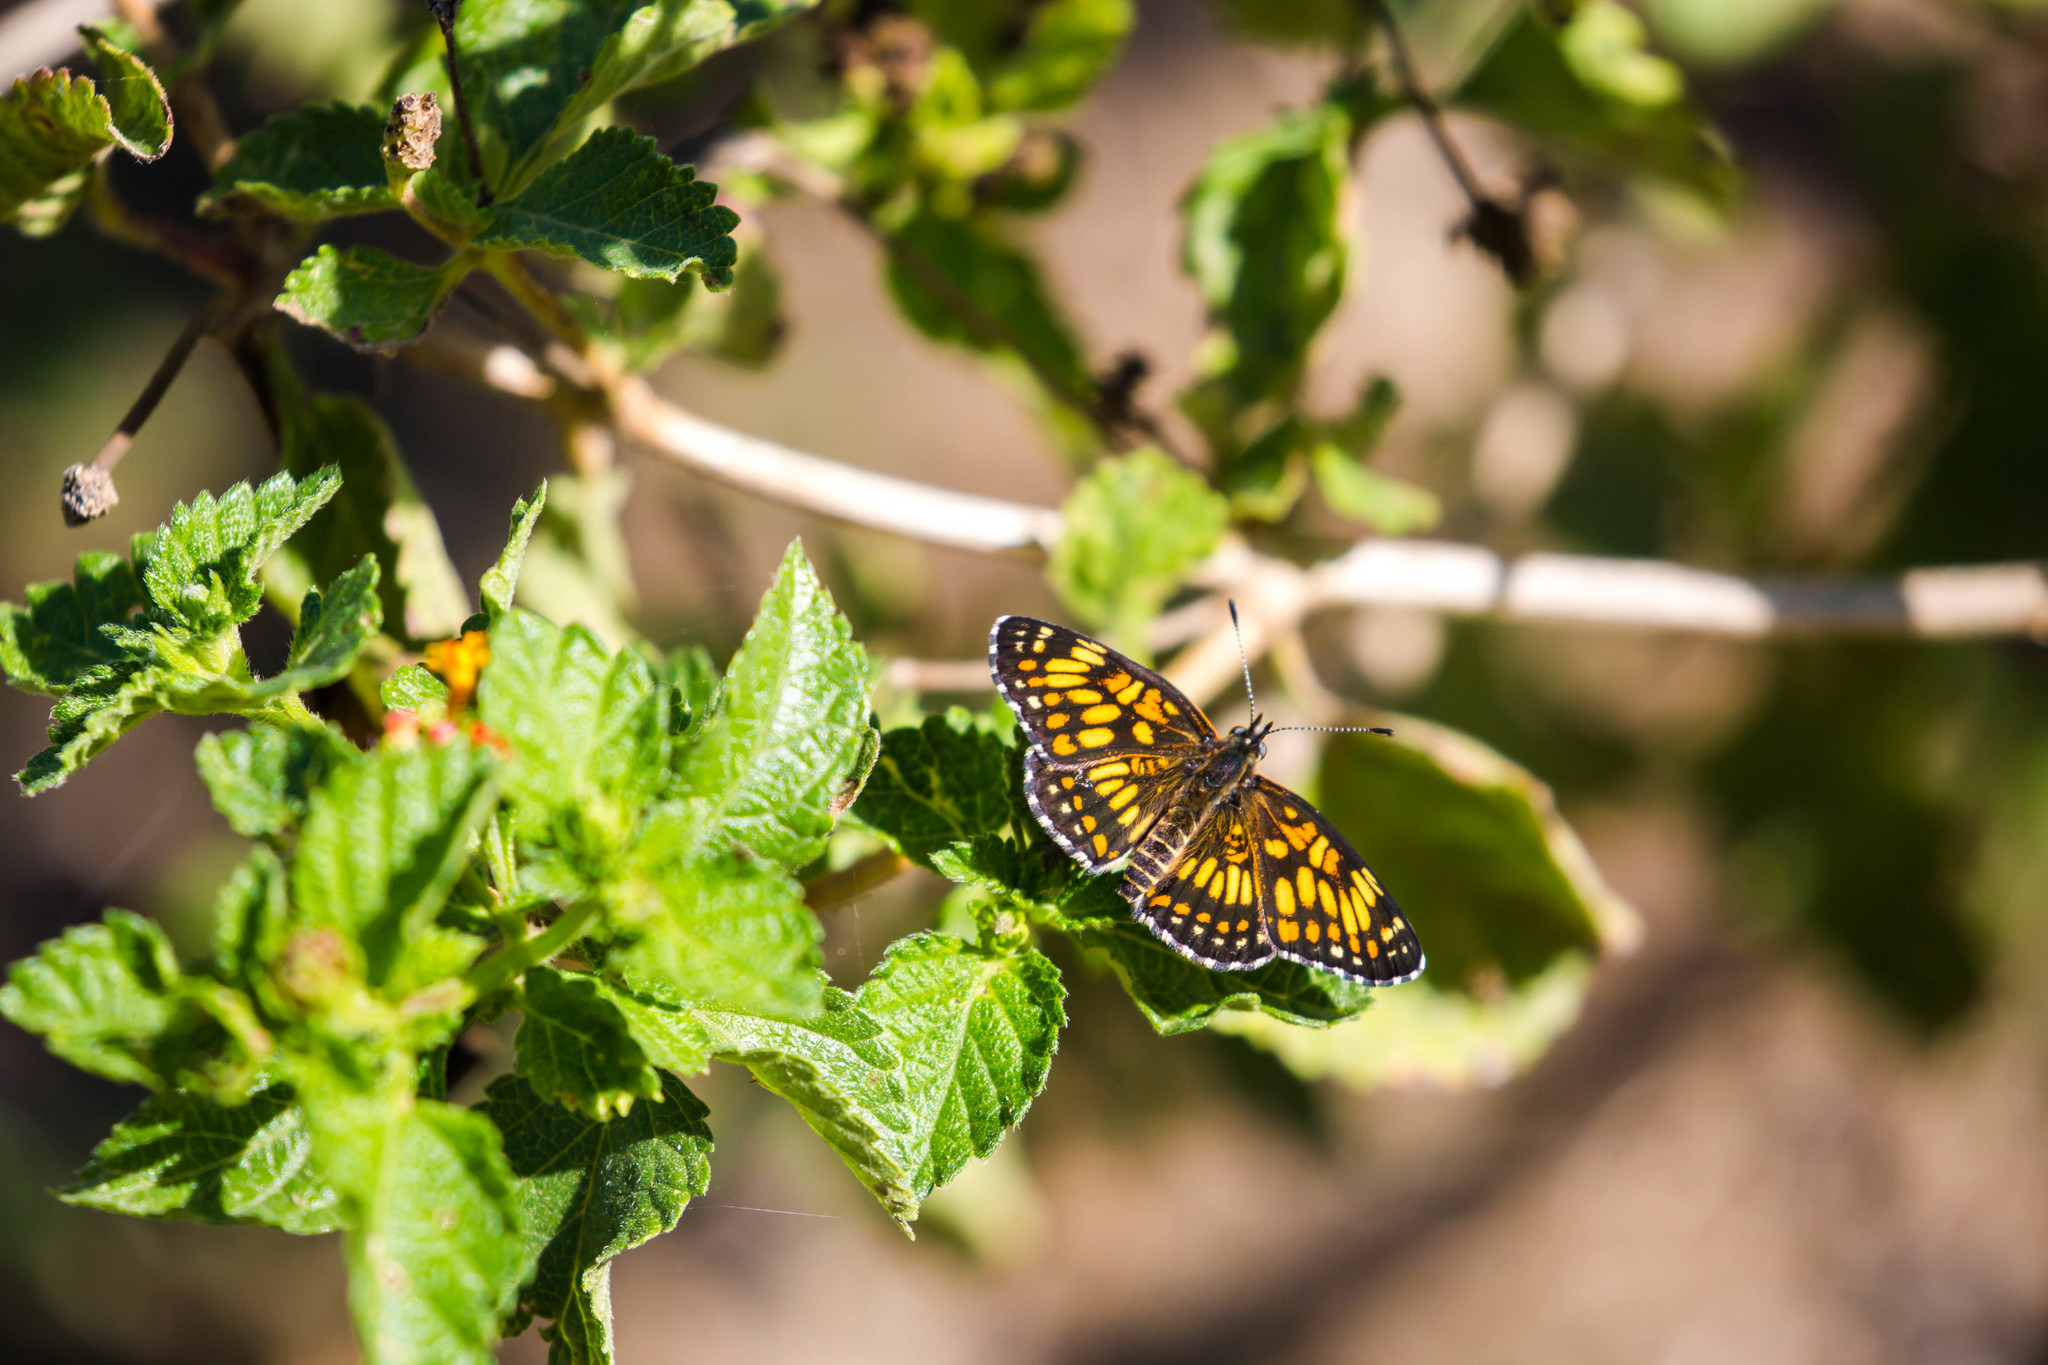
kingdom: Animalia
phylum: Arthropoda
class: Insecta
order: Lepidoptera
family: Nymphalidae
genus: Thessalia
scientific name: Thessalia theona
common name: Nymphalid moth
